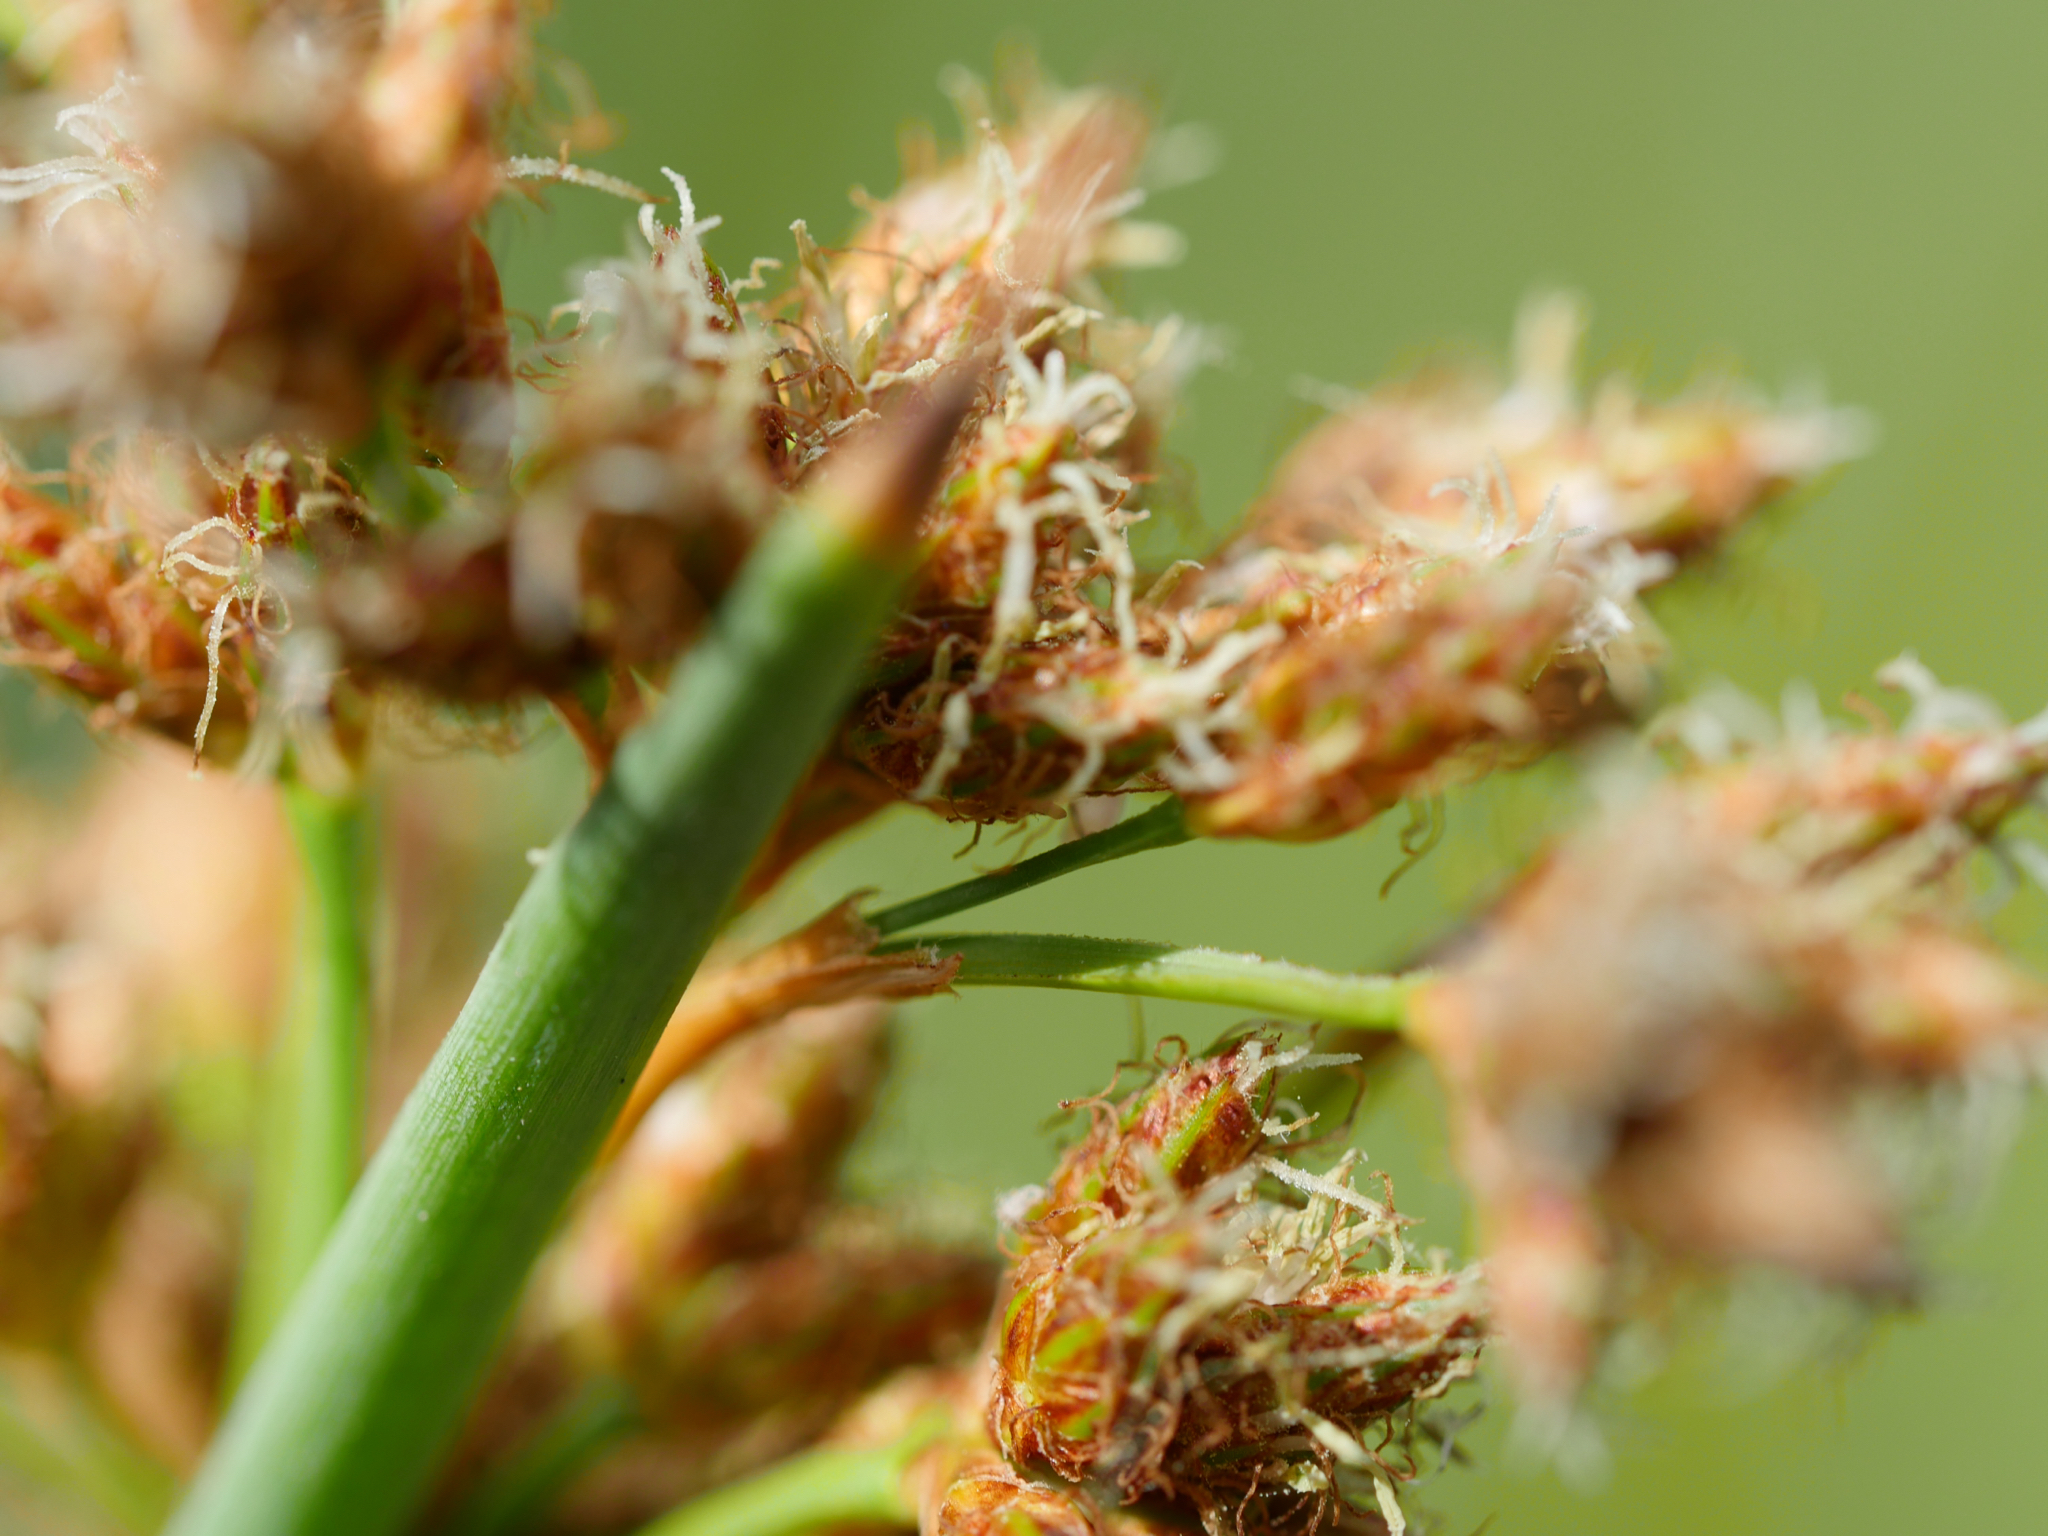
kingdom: Plantae
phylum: Tracheophyta
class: Liliopsida
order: Poales
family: Cyperaceae
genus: Schoenoplectus
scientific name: Schoenoplectus tabernaemontani
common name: Grey club-rush
